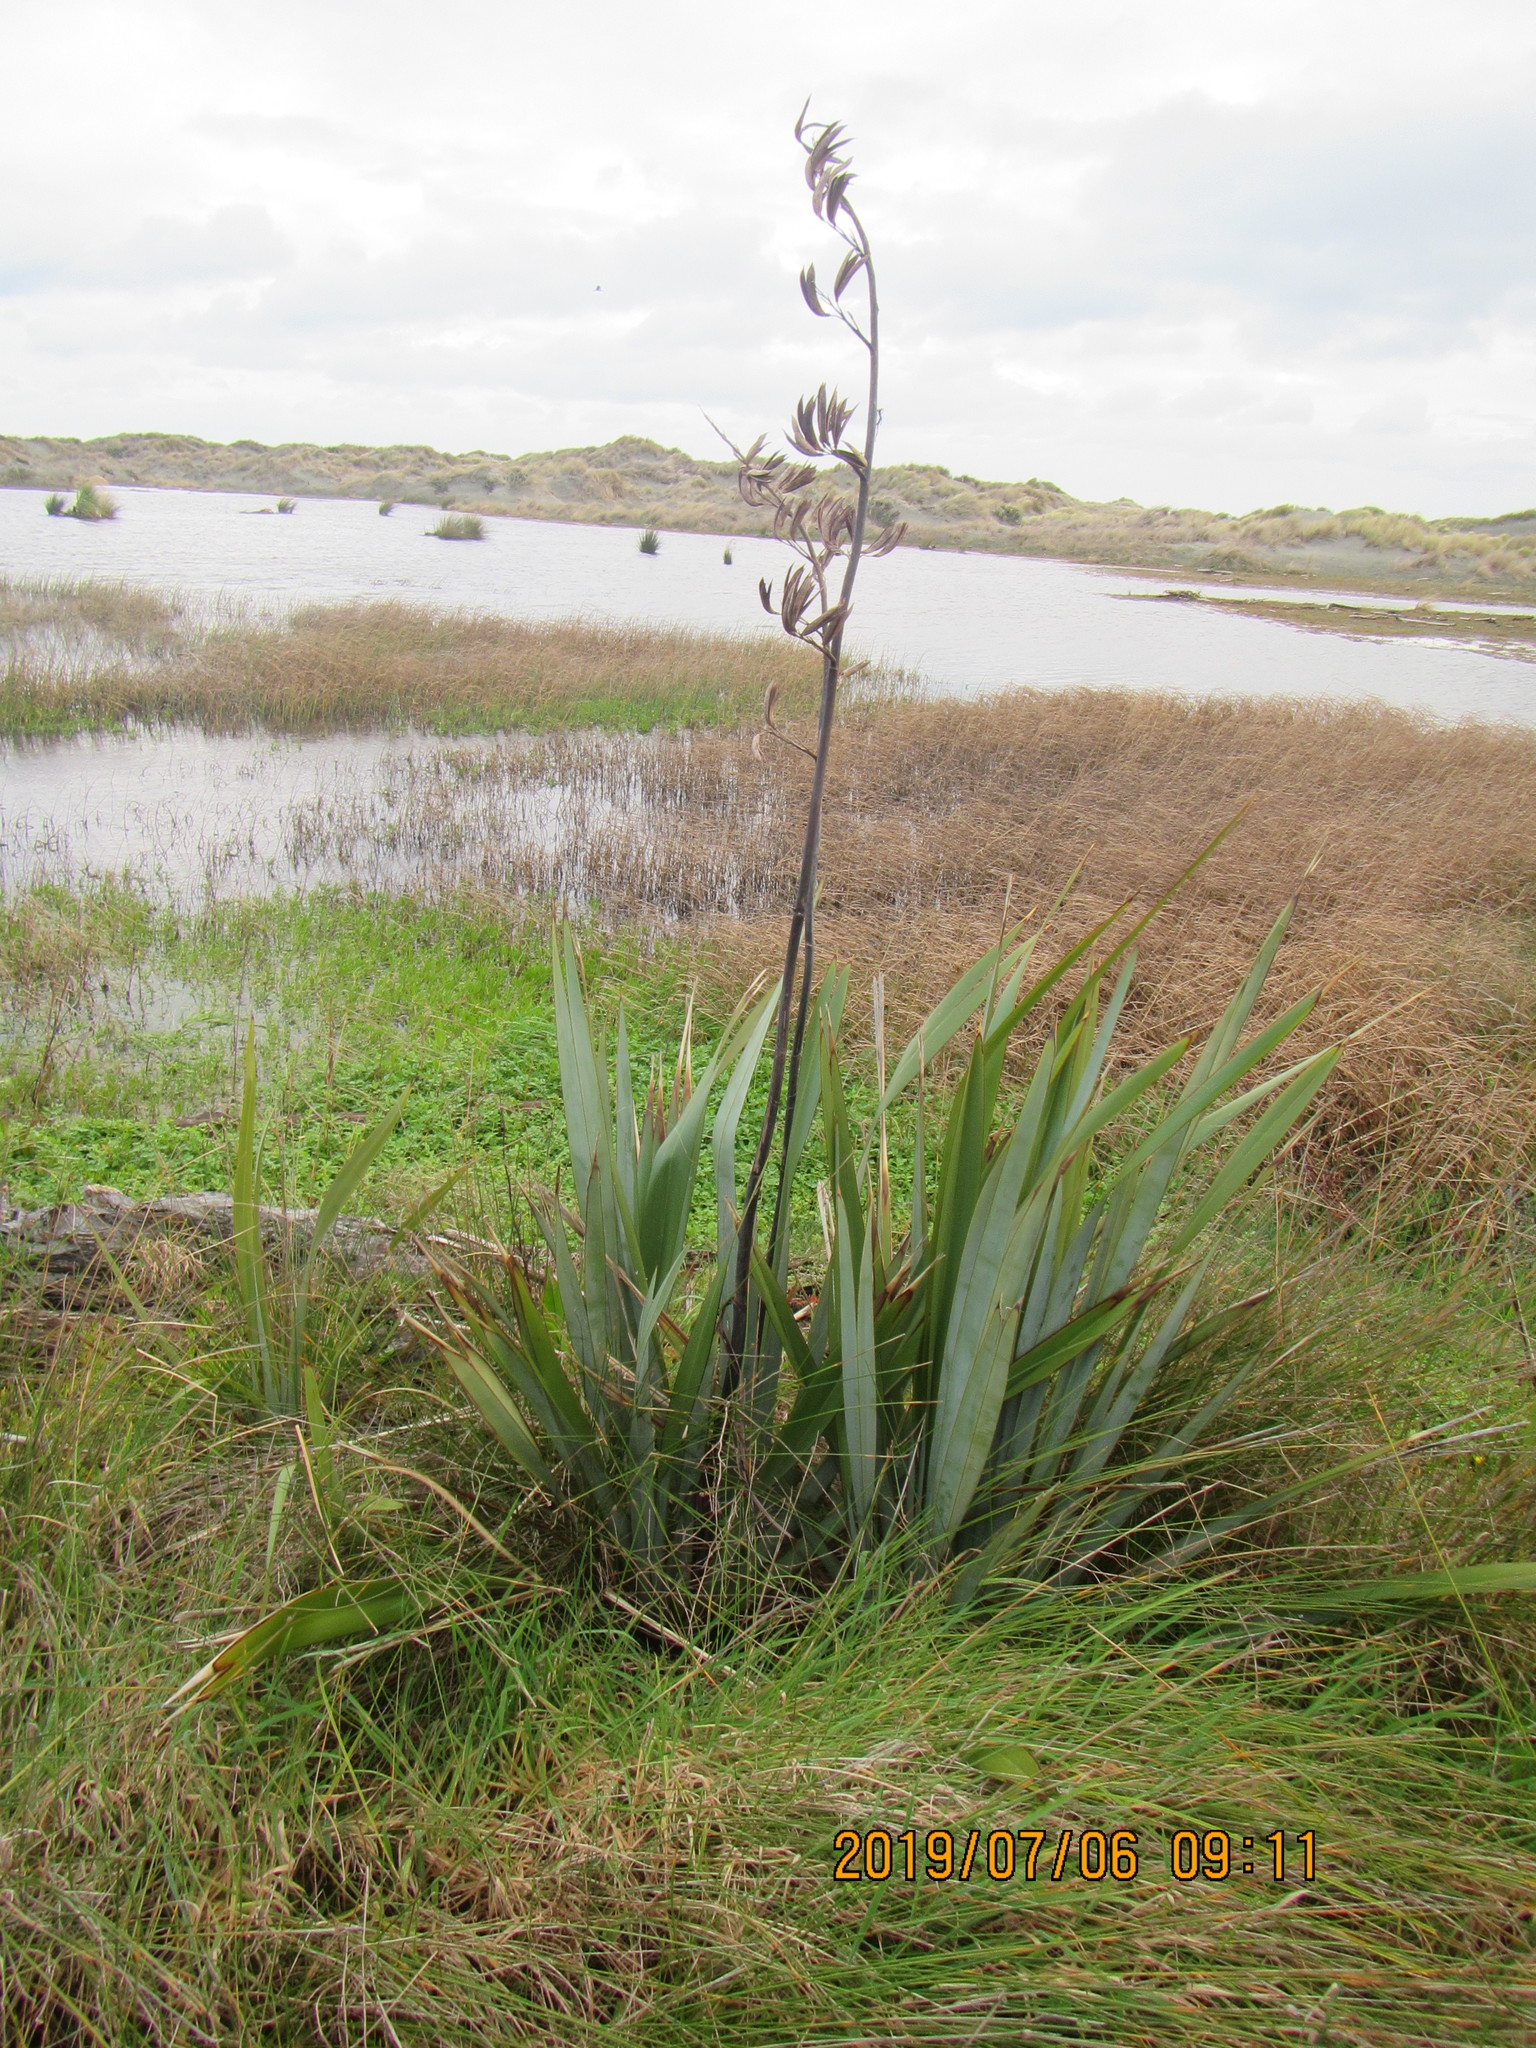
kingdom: Plantae
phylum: Tracheophyta
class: Liliopsida
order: Asparagales
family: Asphodelaceae
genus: Phormium
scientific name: Phormium tenax
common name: New zealand flax
